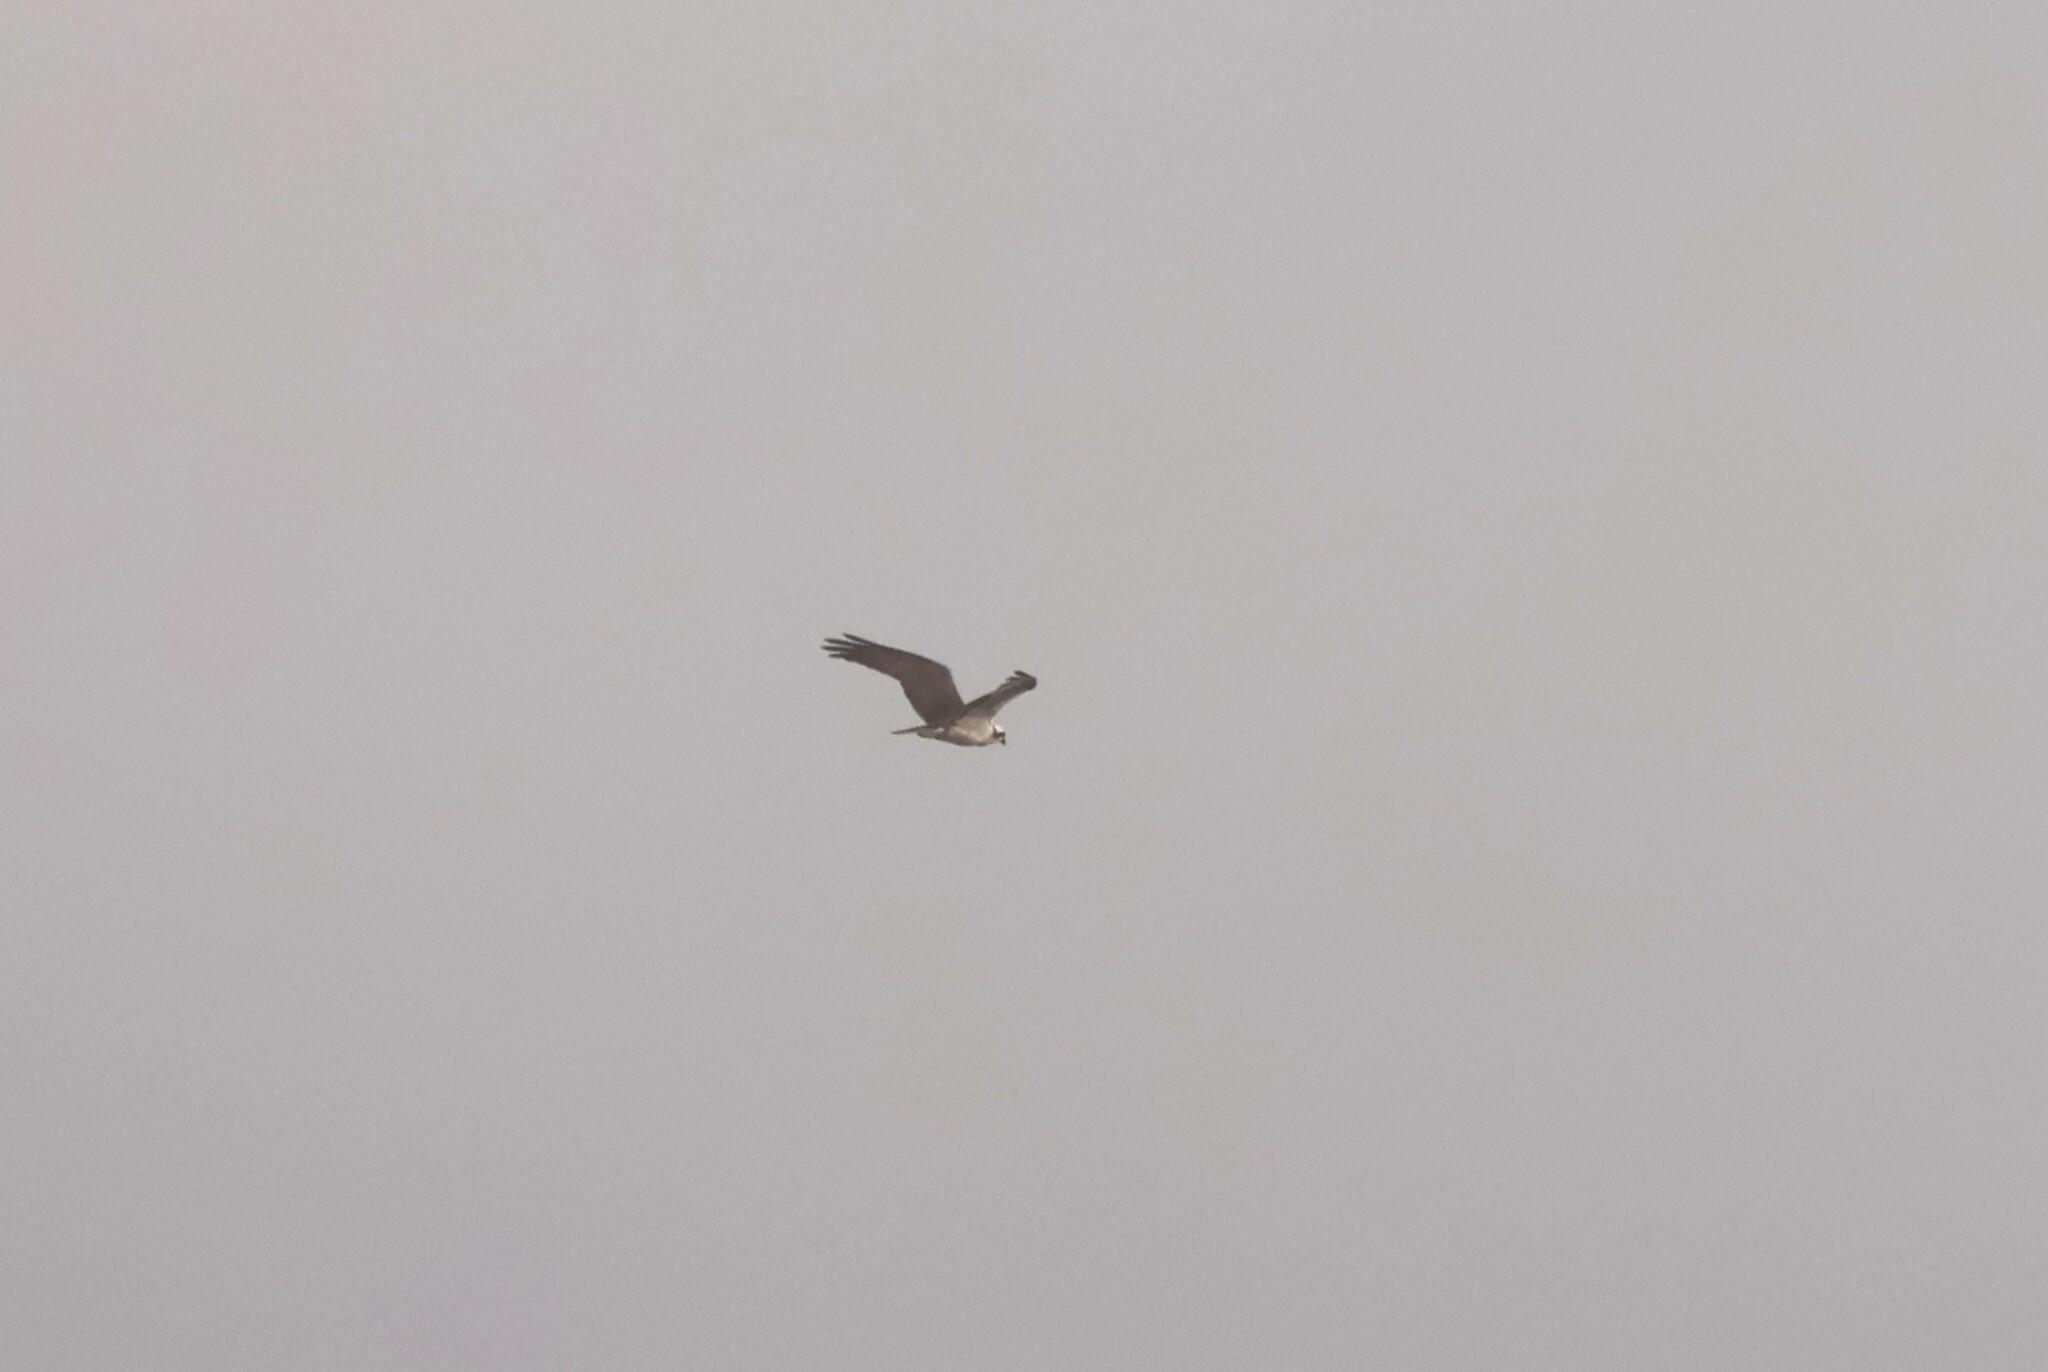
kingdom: Animalia
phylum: Chordata
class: Aves
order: Accipitriformes
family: Pandionidae
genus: Pandion
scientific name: Pandion haliaetus
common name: Osprey
